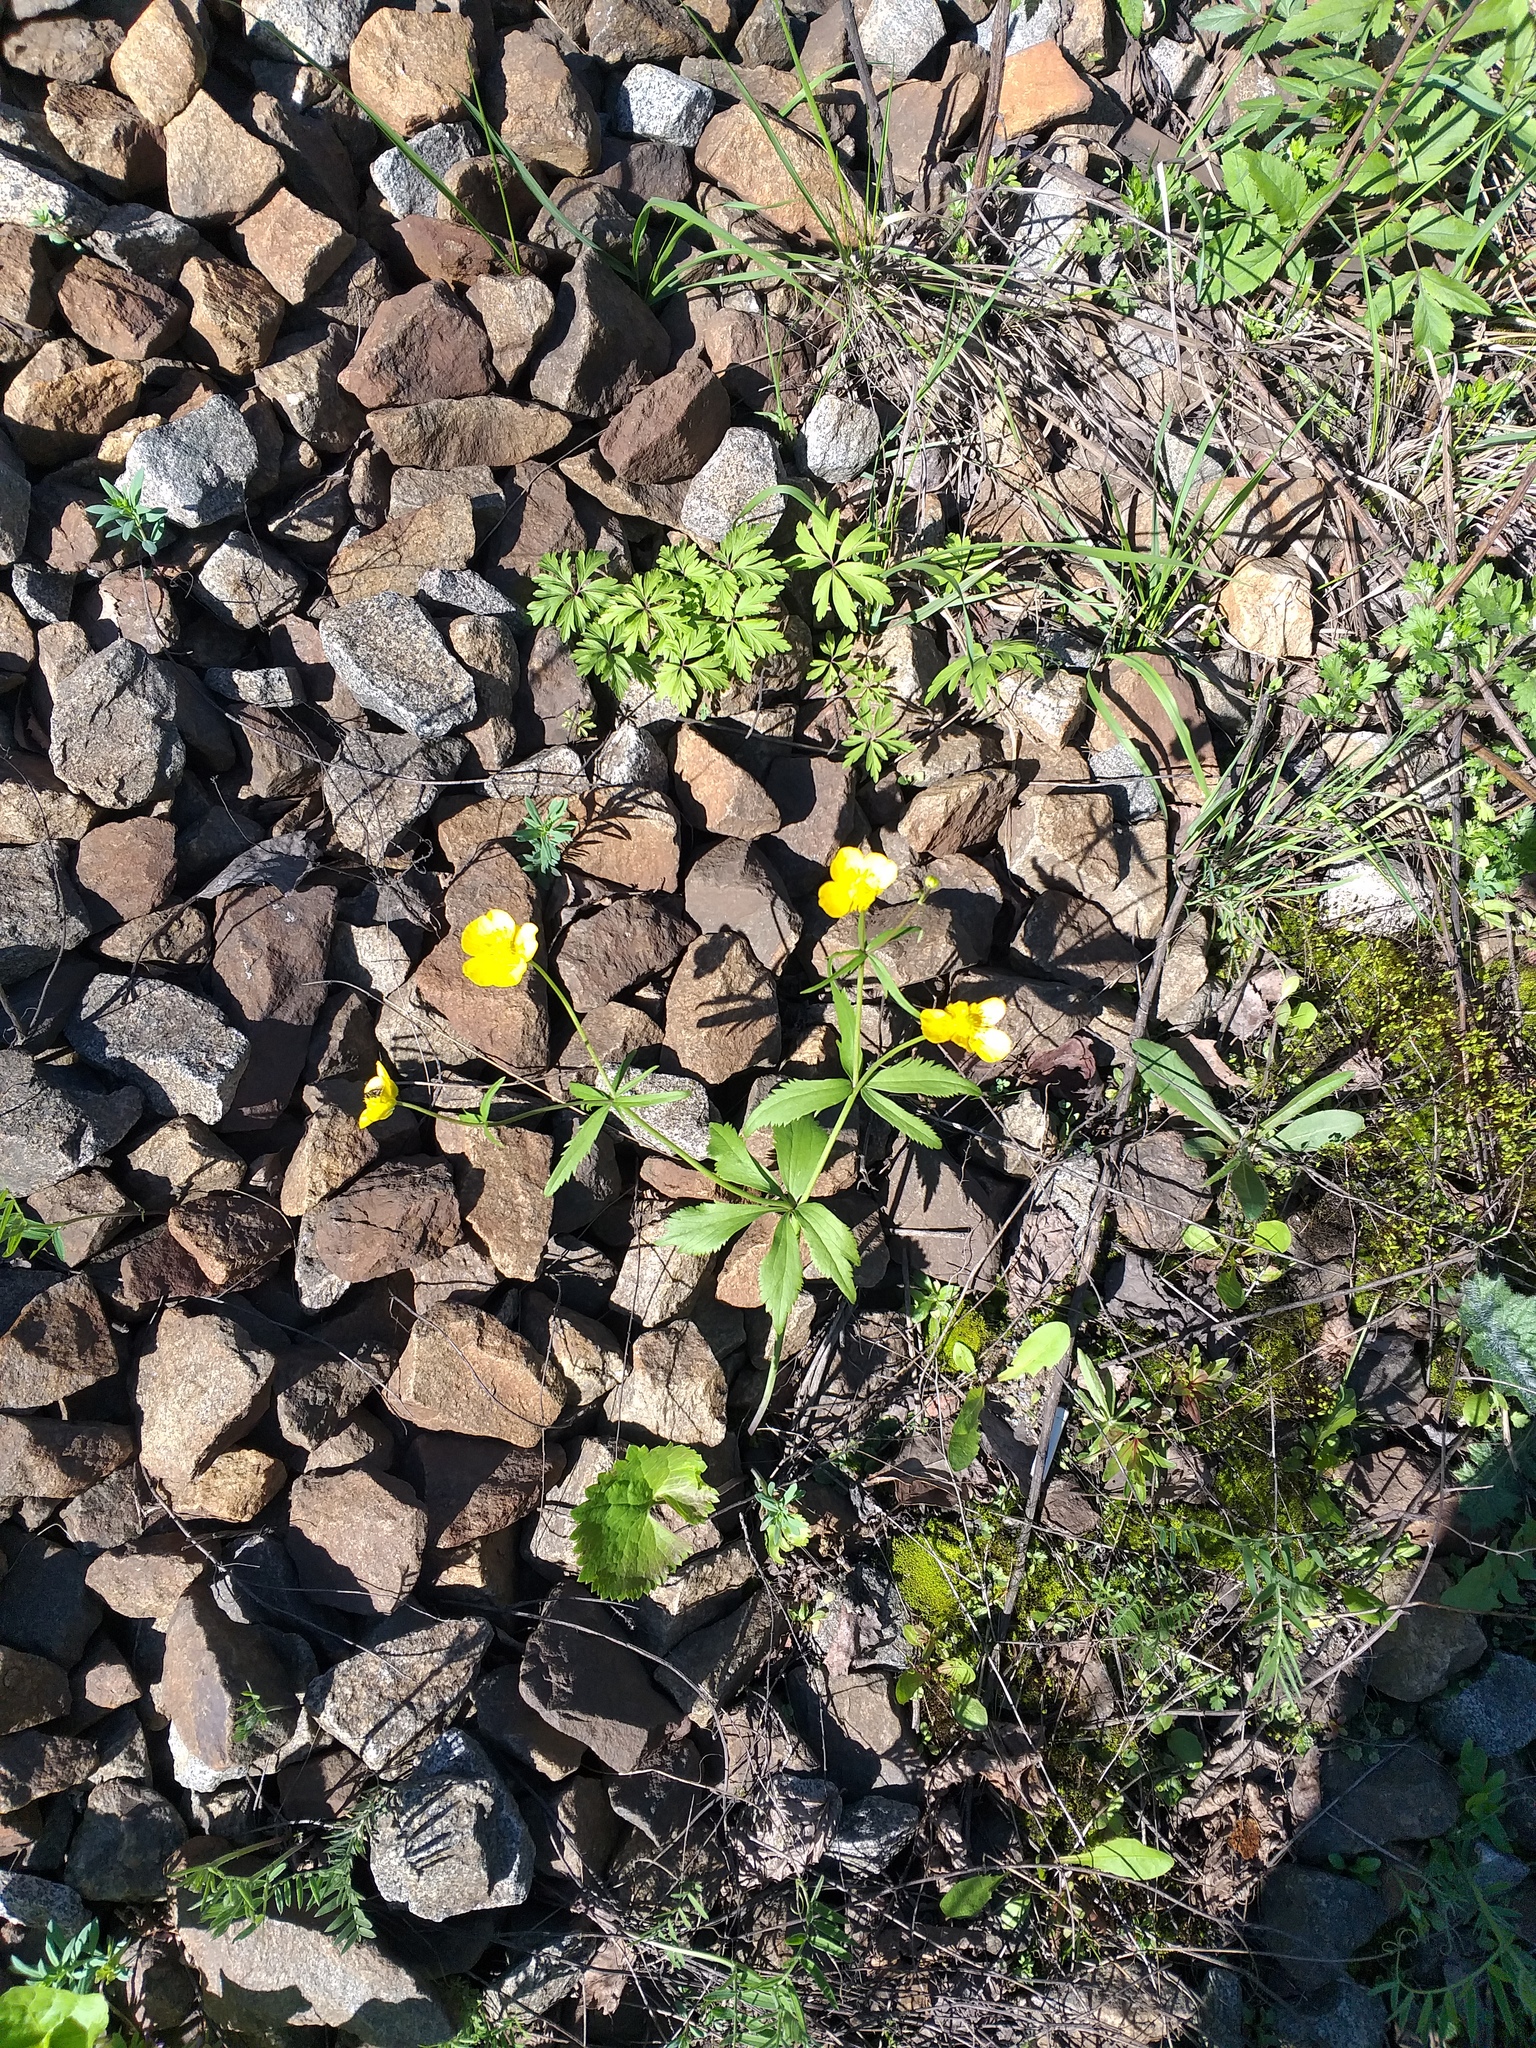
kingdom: Plantae
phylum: Tracheophyta
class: Magnoliopsida
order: Ranunculales
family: Ranunculaceae
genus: Ranunculus
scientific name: Ranunculus cassubicus
